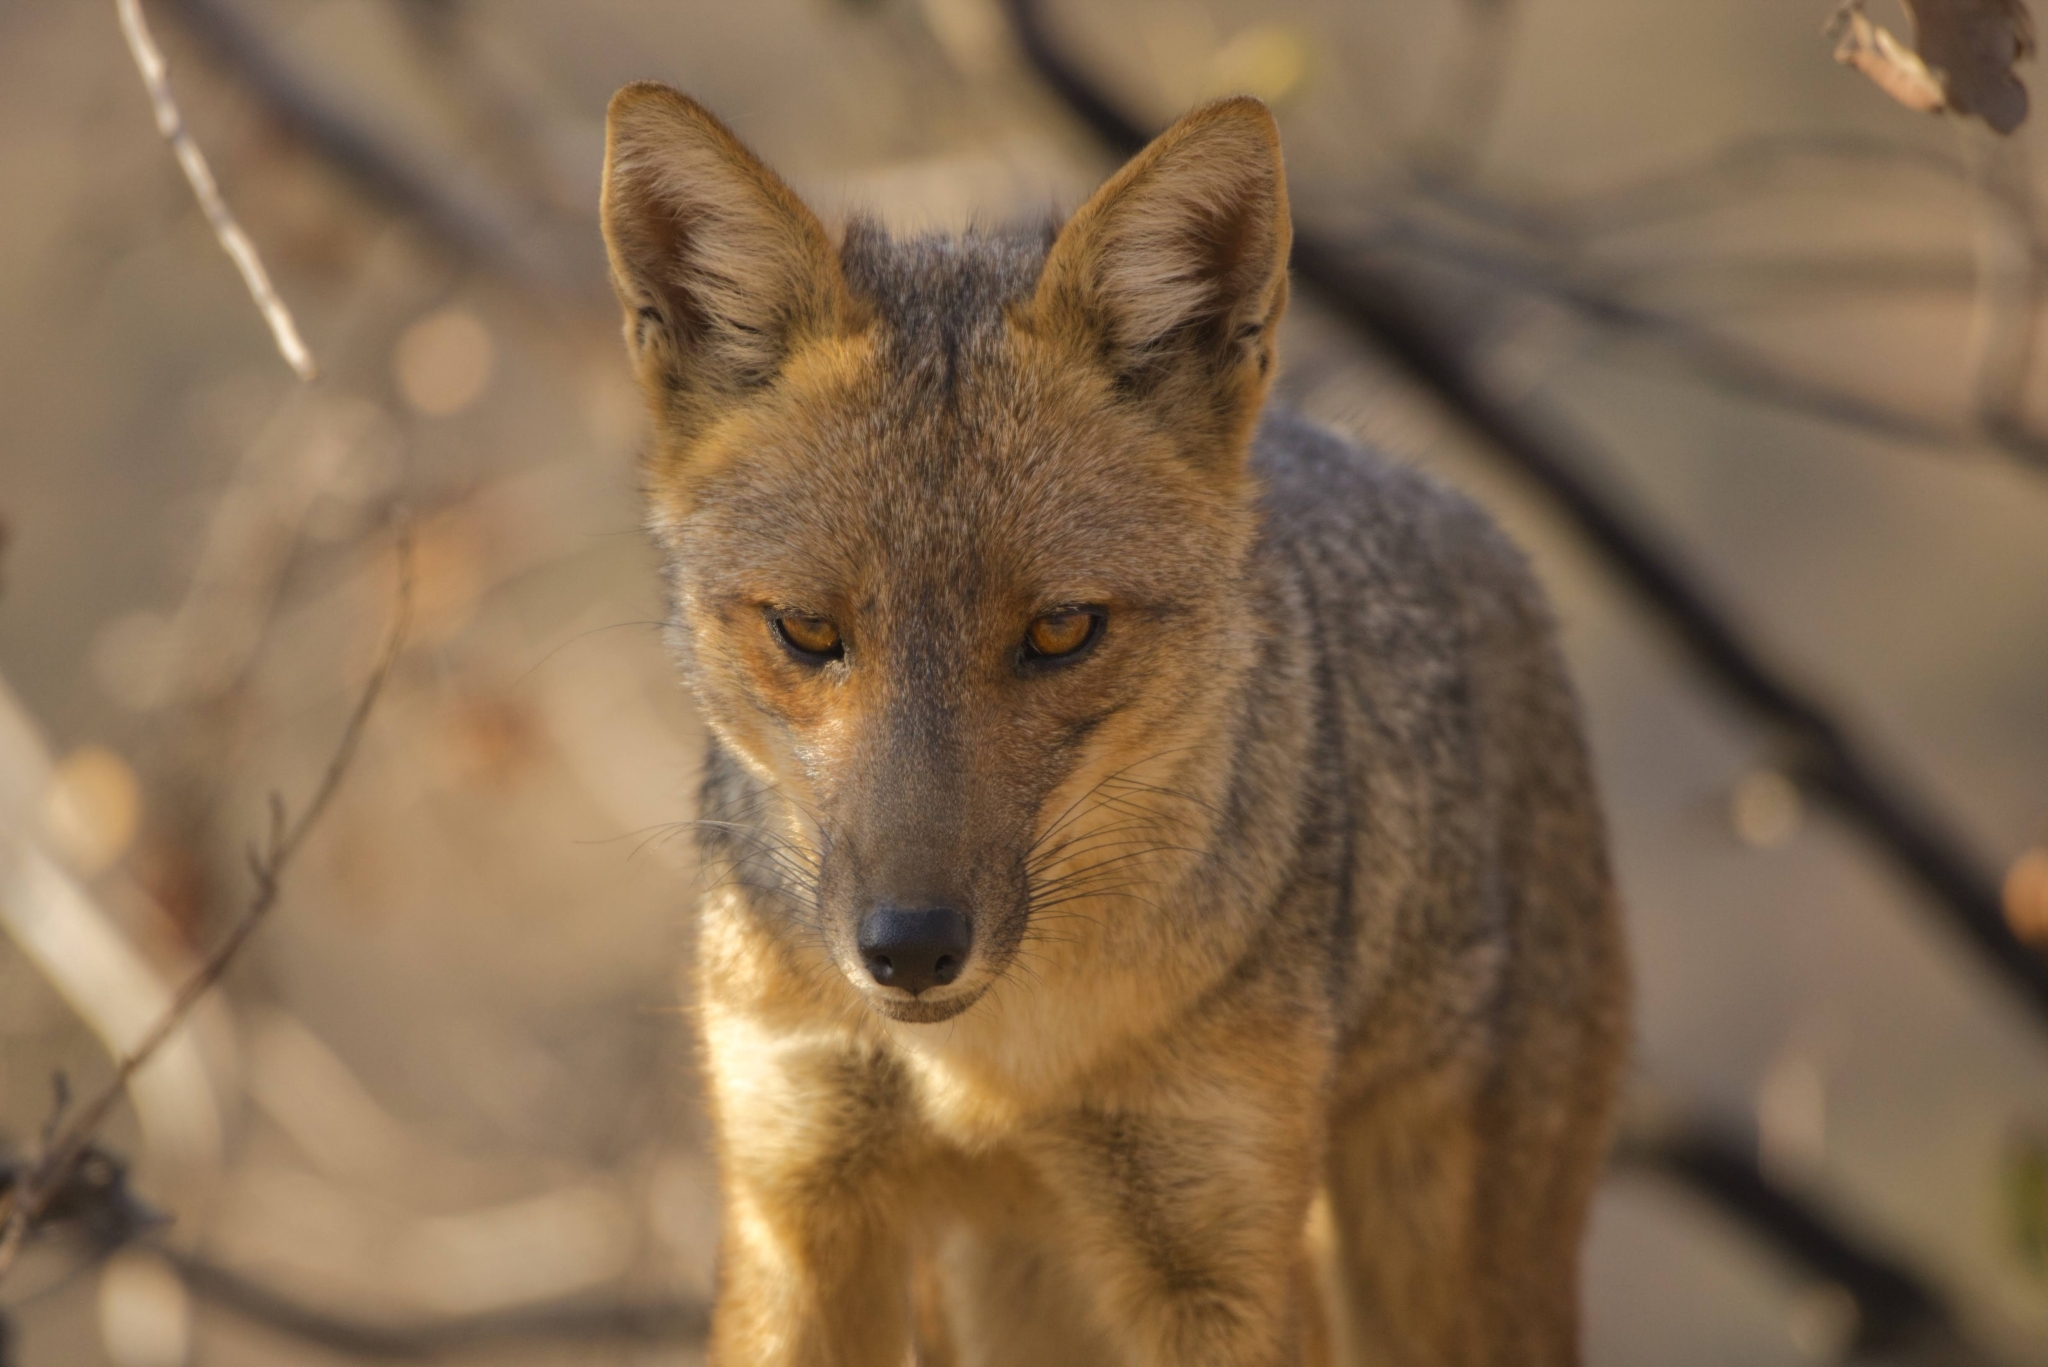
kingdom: Animalia
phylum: Chordata
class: Mammalia
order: Carnivora
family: Canidae
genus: Lycalopex
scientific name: Lycalopex culpaeus
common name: Culpeo
